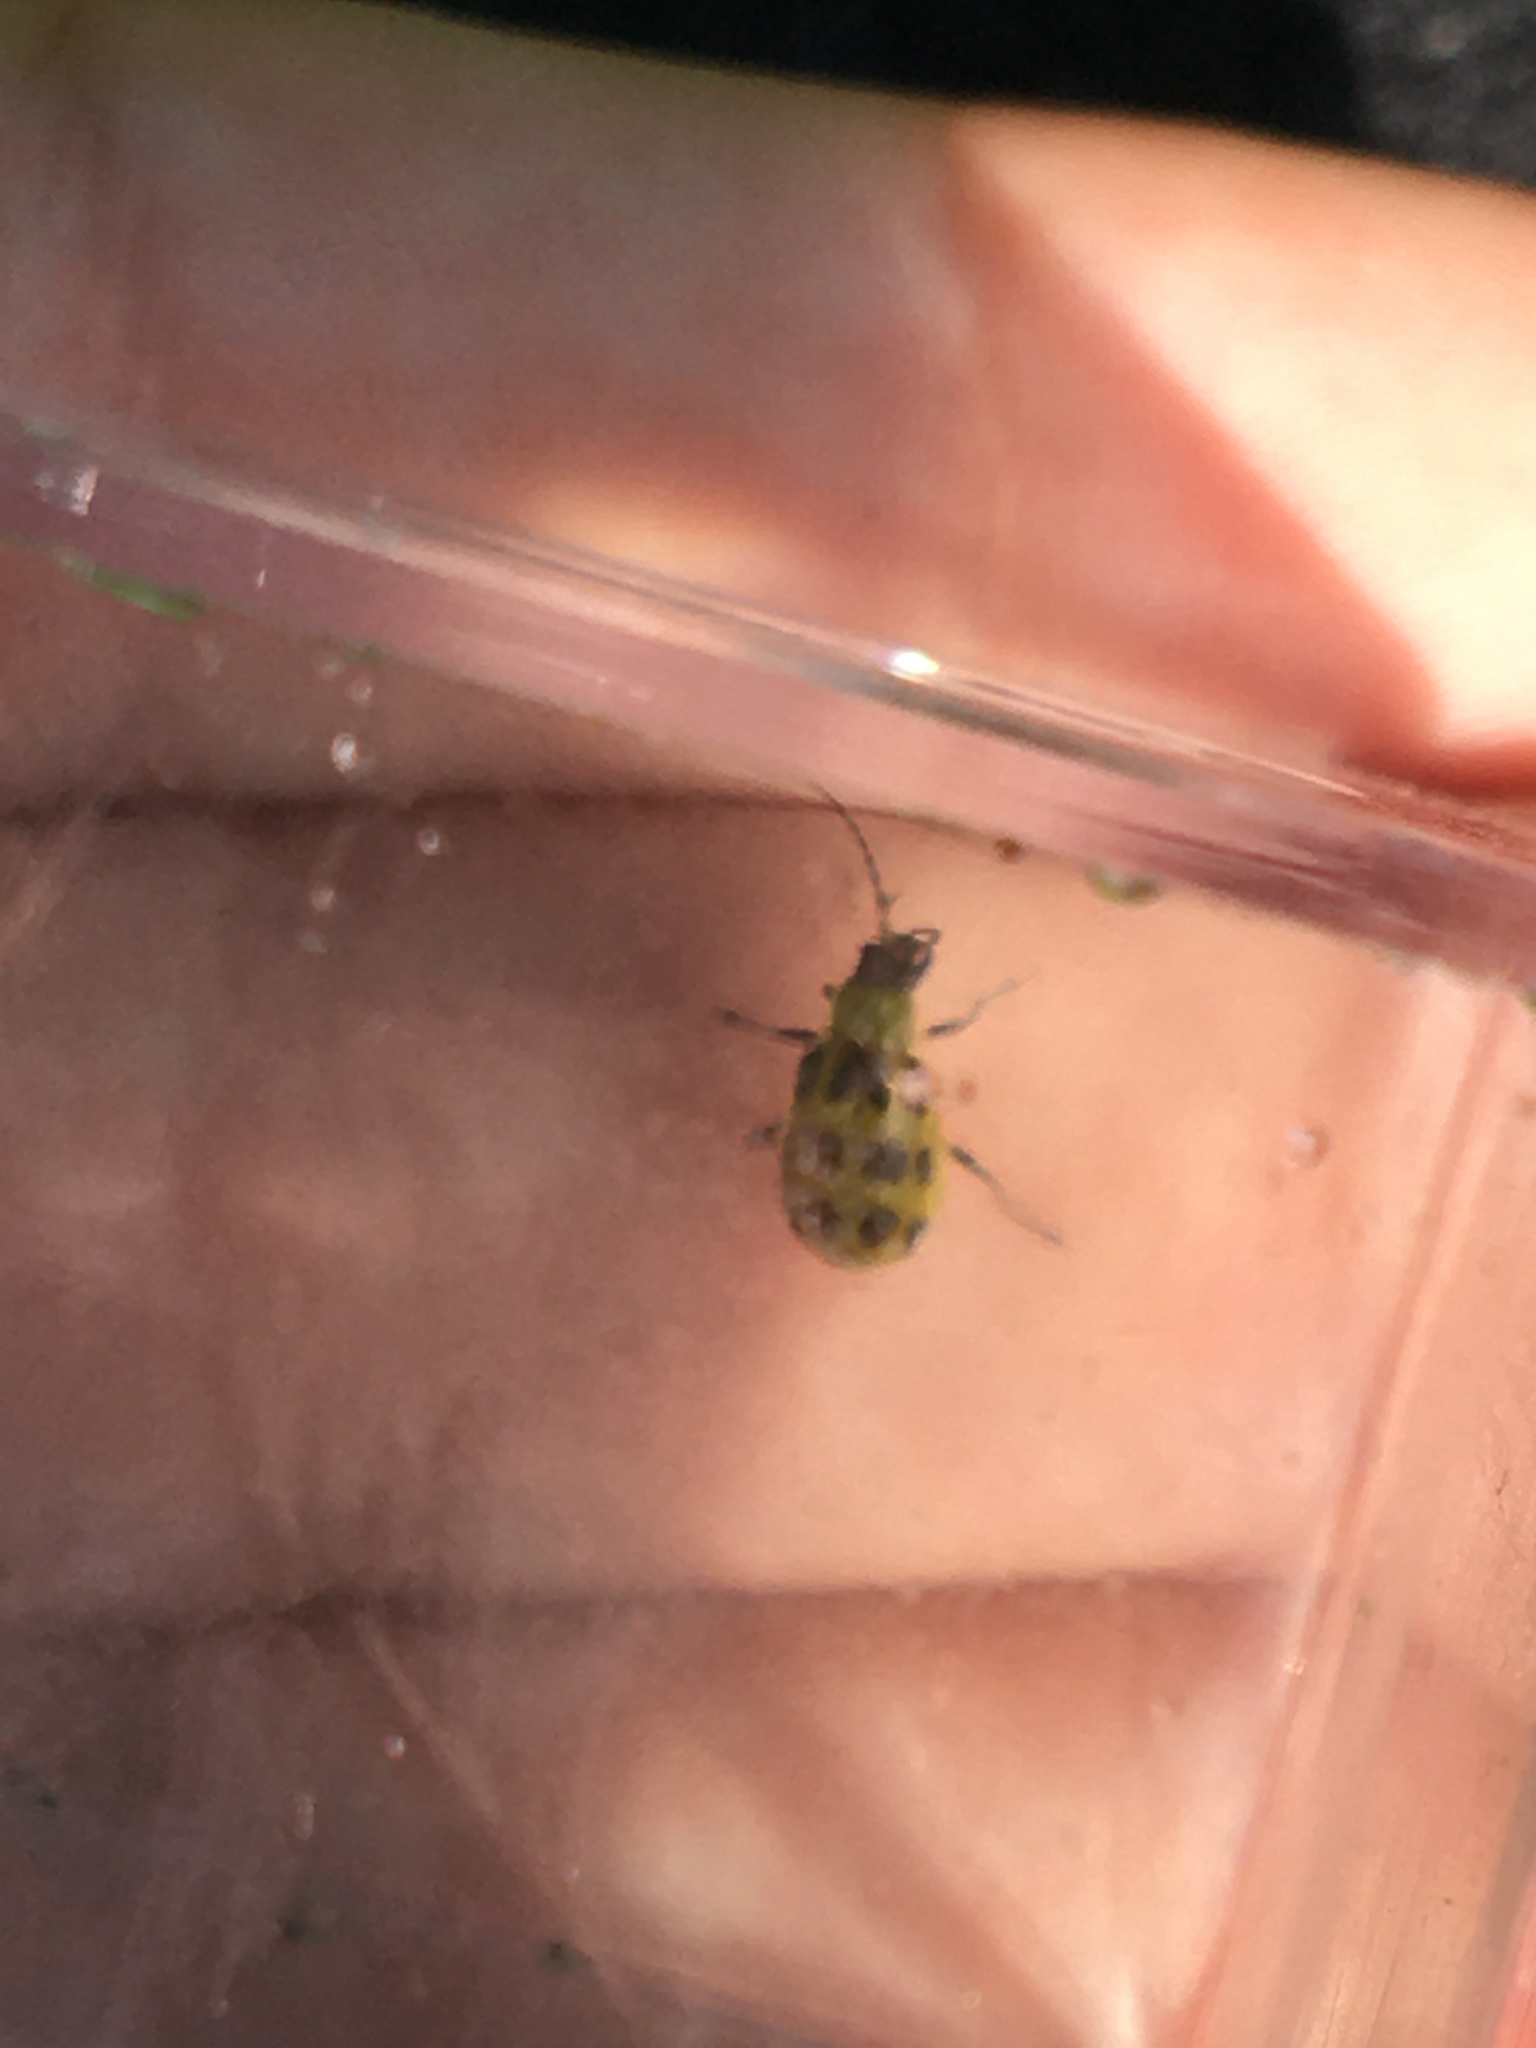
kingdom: Animalia
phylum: Arthropoda
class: Insecta
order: Coleoptera
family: Chrysomelidae
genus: Diabrotica
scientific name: Diabrotica undecimpunctata
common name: Spotted cucumber beetle
